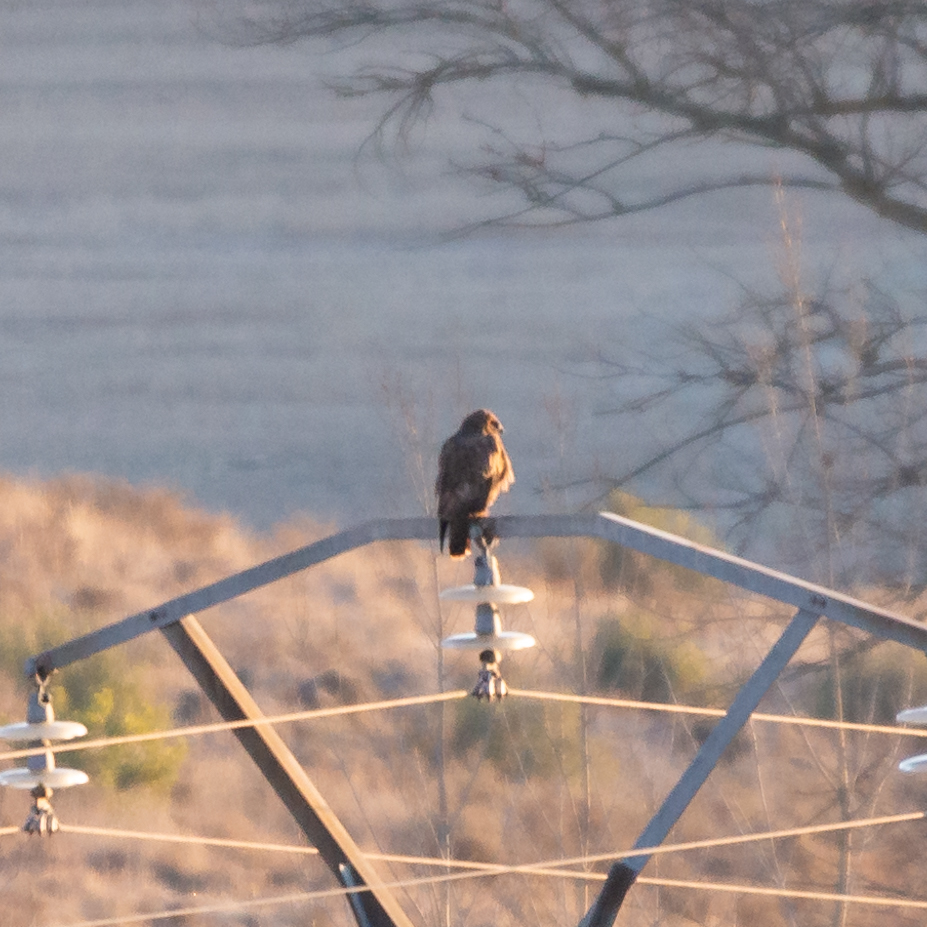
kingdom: Animalia
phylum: Chordata
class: Aves
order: Accipitriformes
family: Accipitridae
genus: Buteo
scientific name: Buteo buteo
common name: Common buzzard
